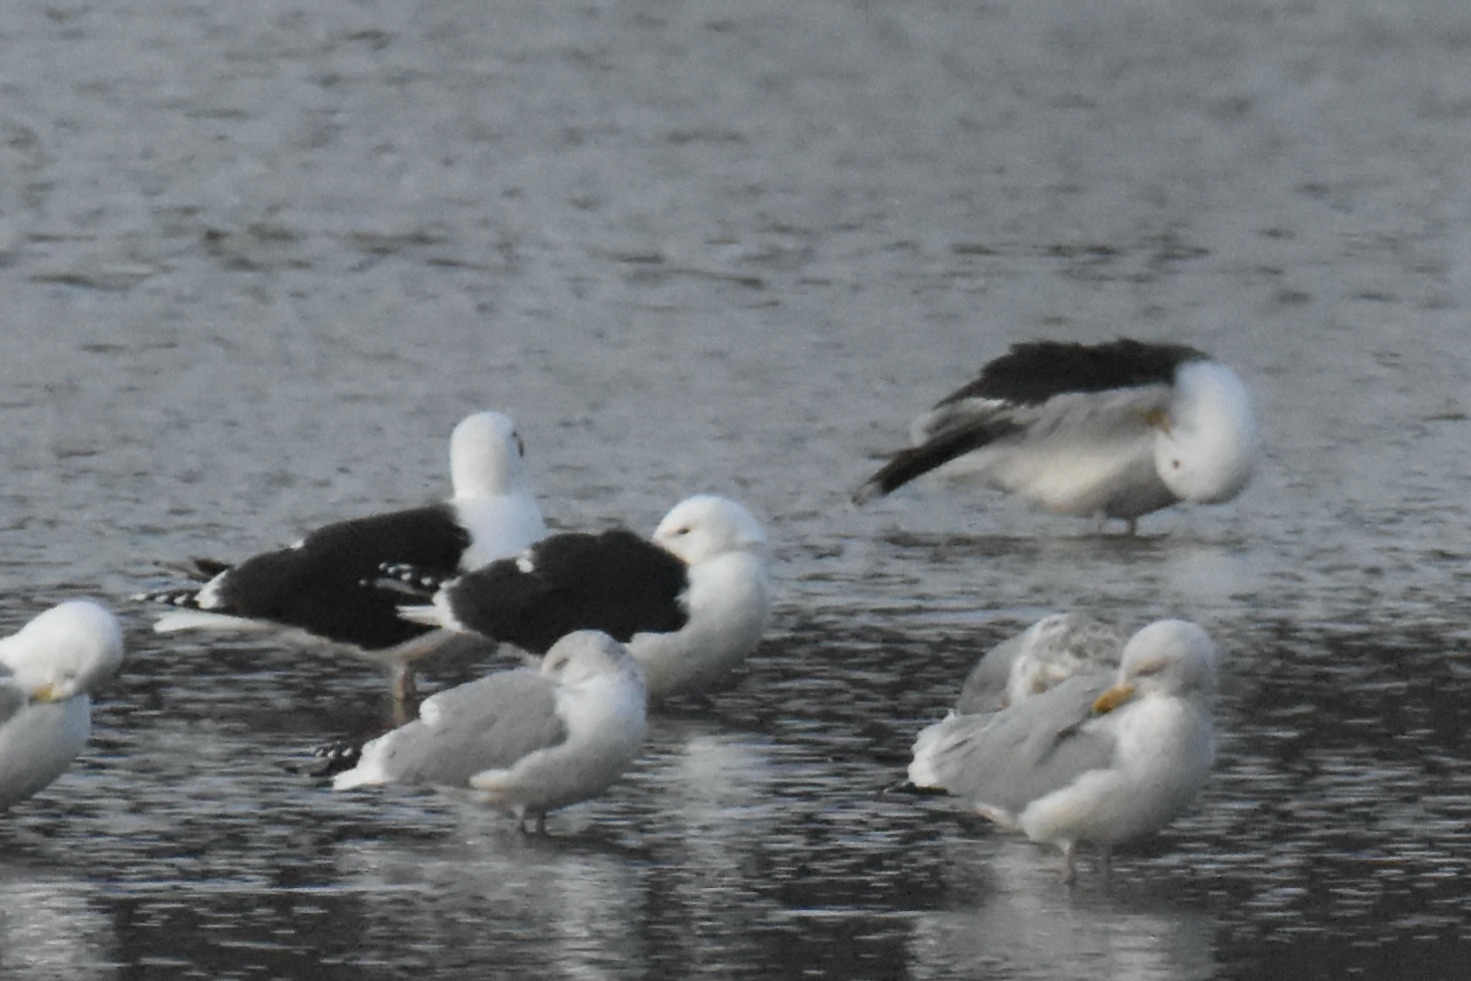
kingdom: Animalia
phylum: Chordata
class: Aves
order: Charadriiformes
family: Laridae
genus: Larus
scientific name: Larus marinus
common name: Great black-backed gull
